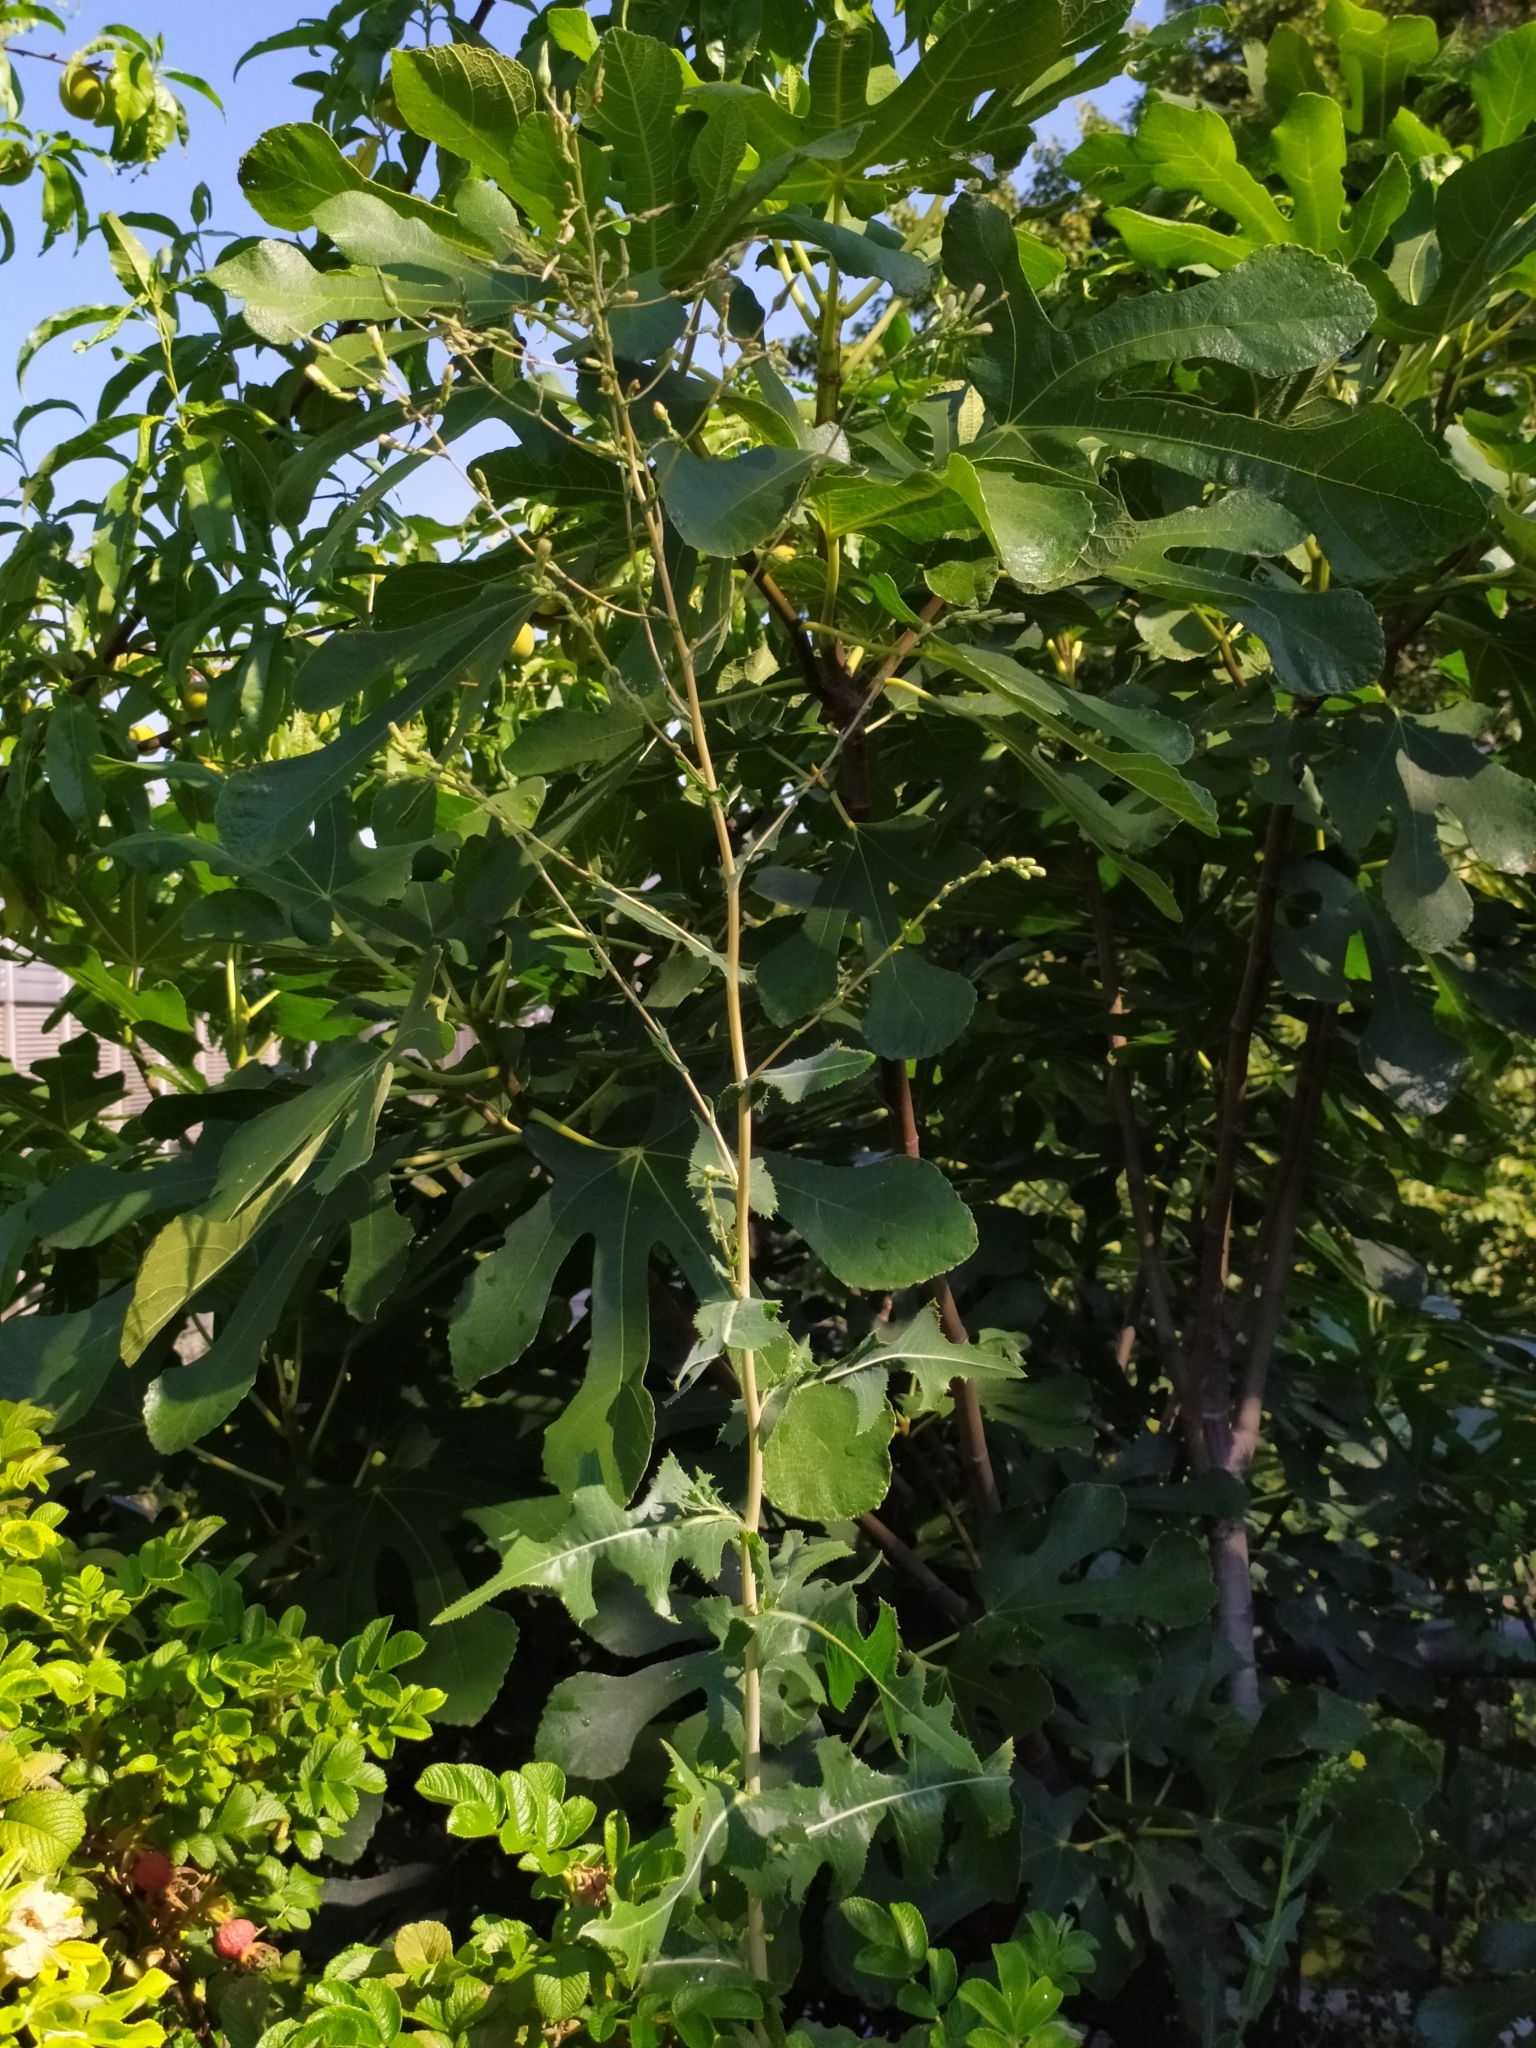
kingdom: Plantae
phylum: Tracheophyta
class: Magnoliopsida
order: Asterales
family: Asteraceae
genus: Lactuca
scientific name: Lactuca serriola
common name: Prickly lettuce
